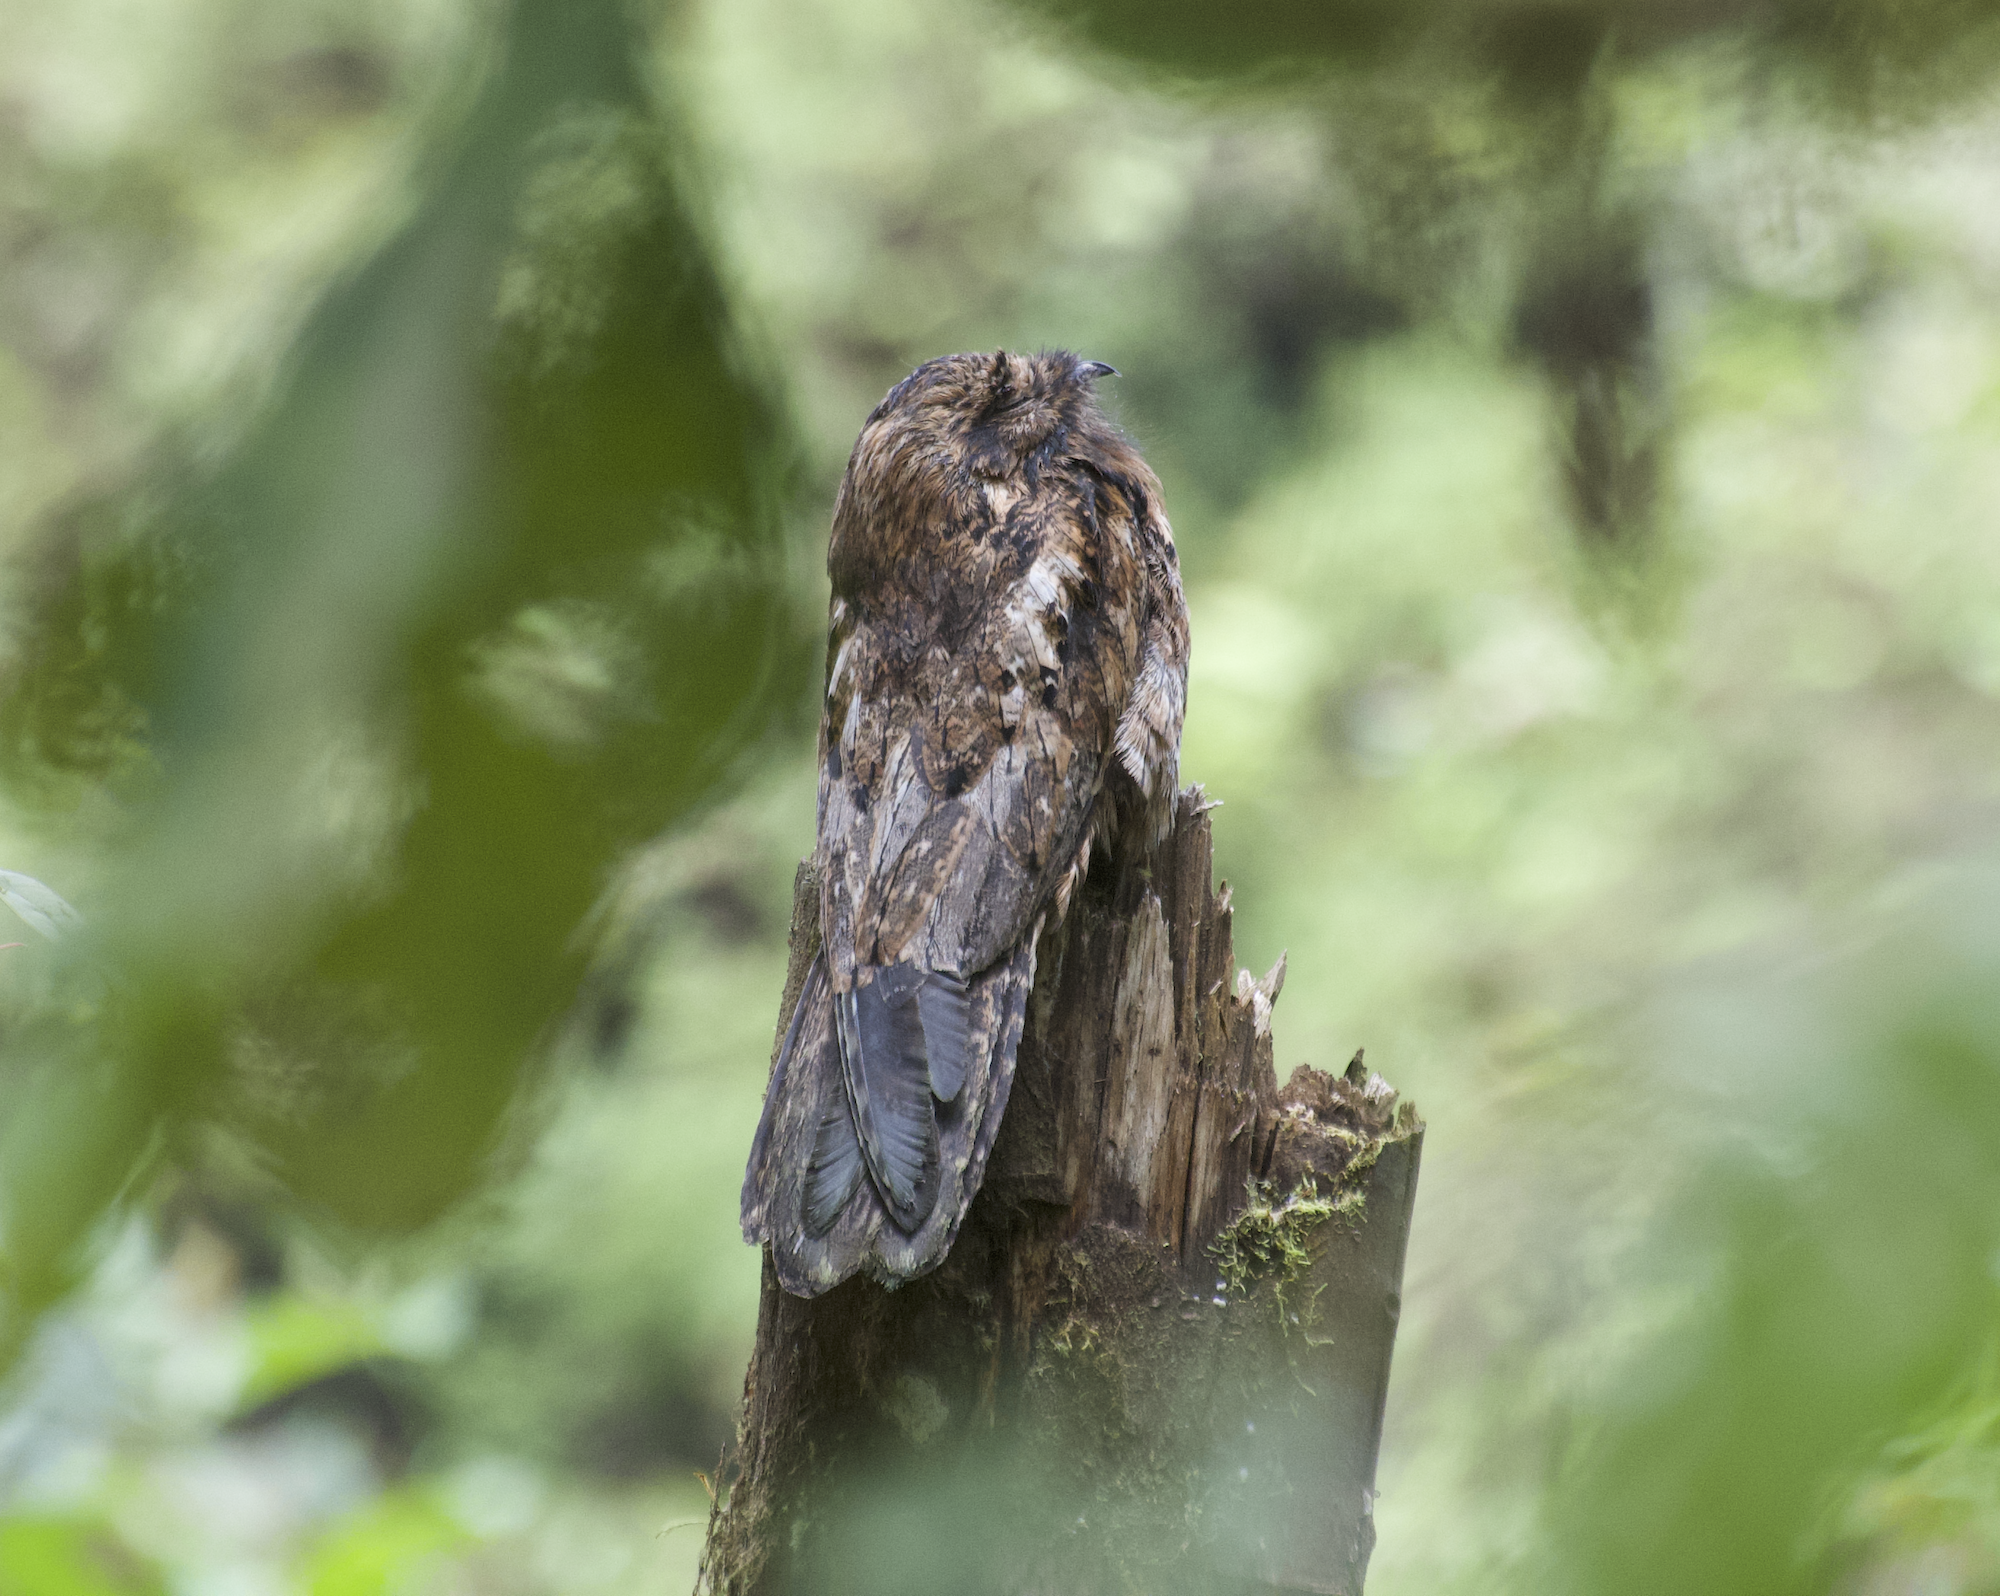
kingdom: Animalia
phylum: Chordata
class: Aves
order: Nyctibiiformes
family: Nyctibiidae
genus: Nyctibius
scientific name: Nyctibius griseus
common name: Common potoo
